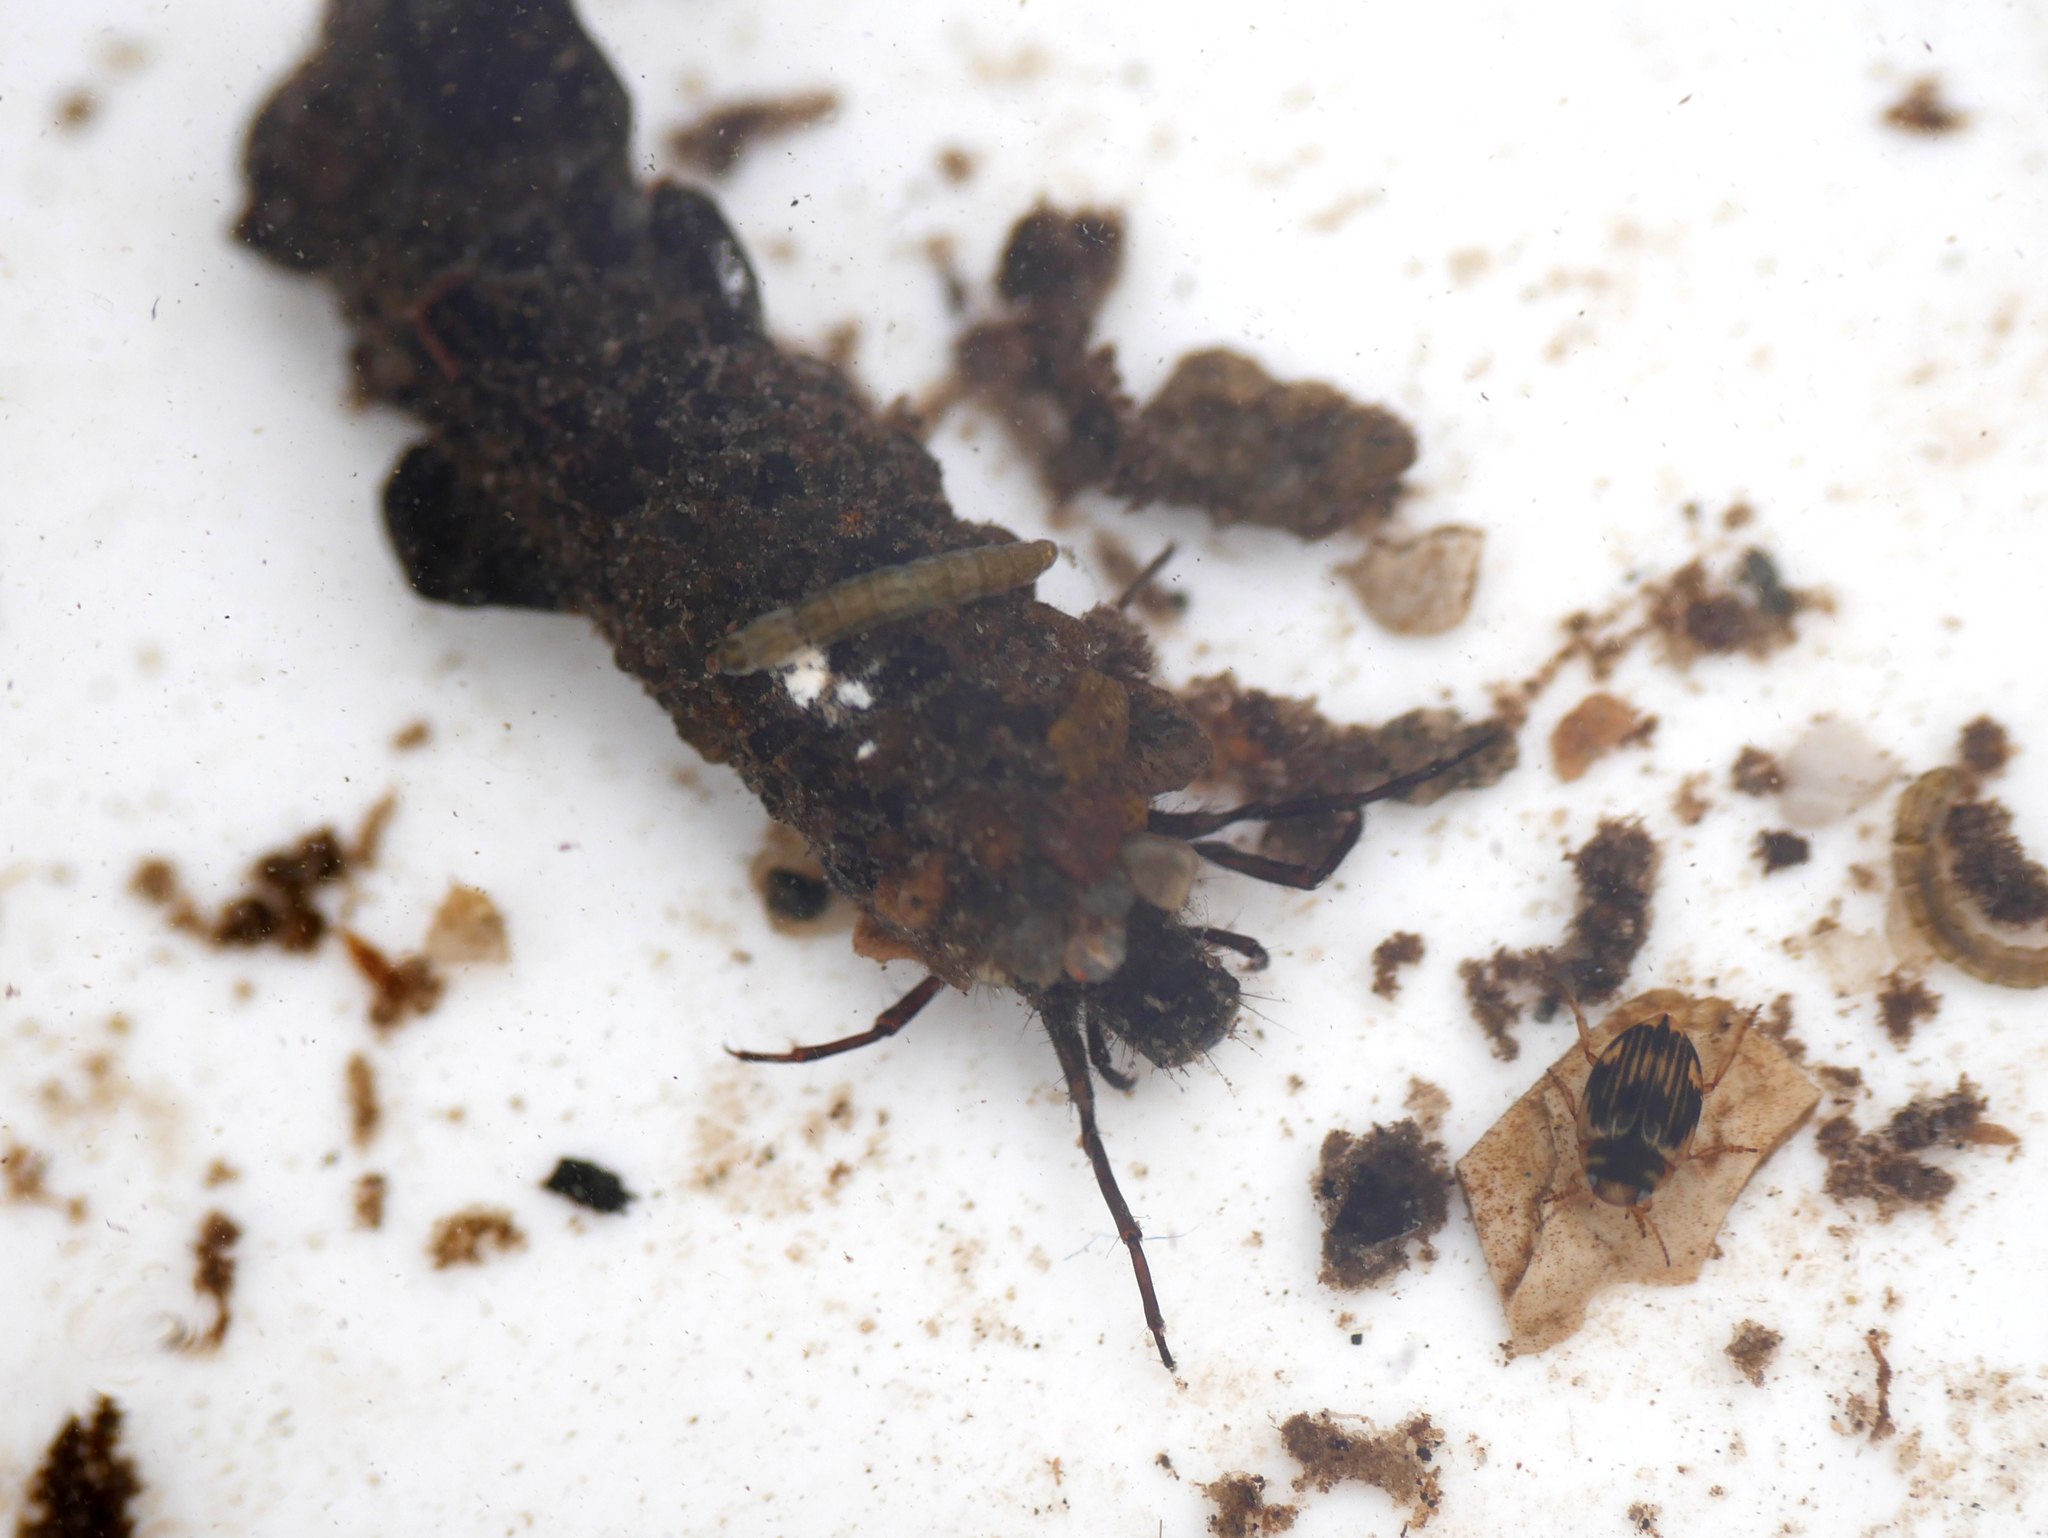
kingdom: Animalia
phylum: Arthropoda
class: Insecta
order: Trichoptera
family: Limnephilidae
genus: Chaetopteryx
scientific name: Chaetopteryx villosa
